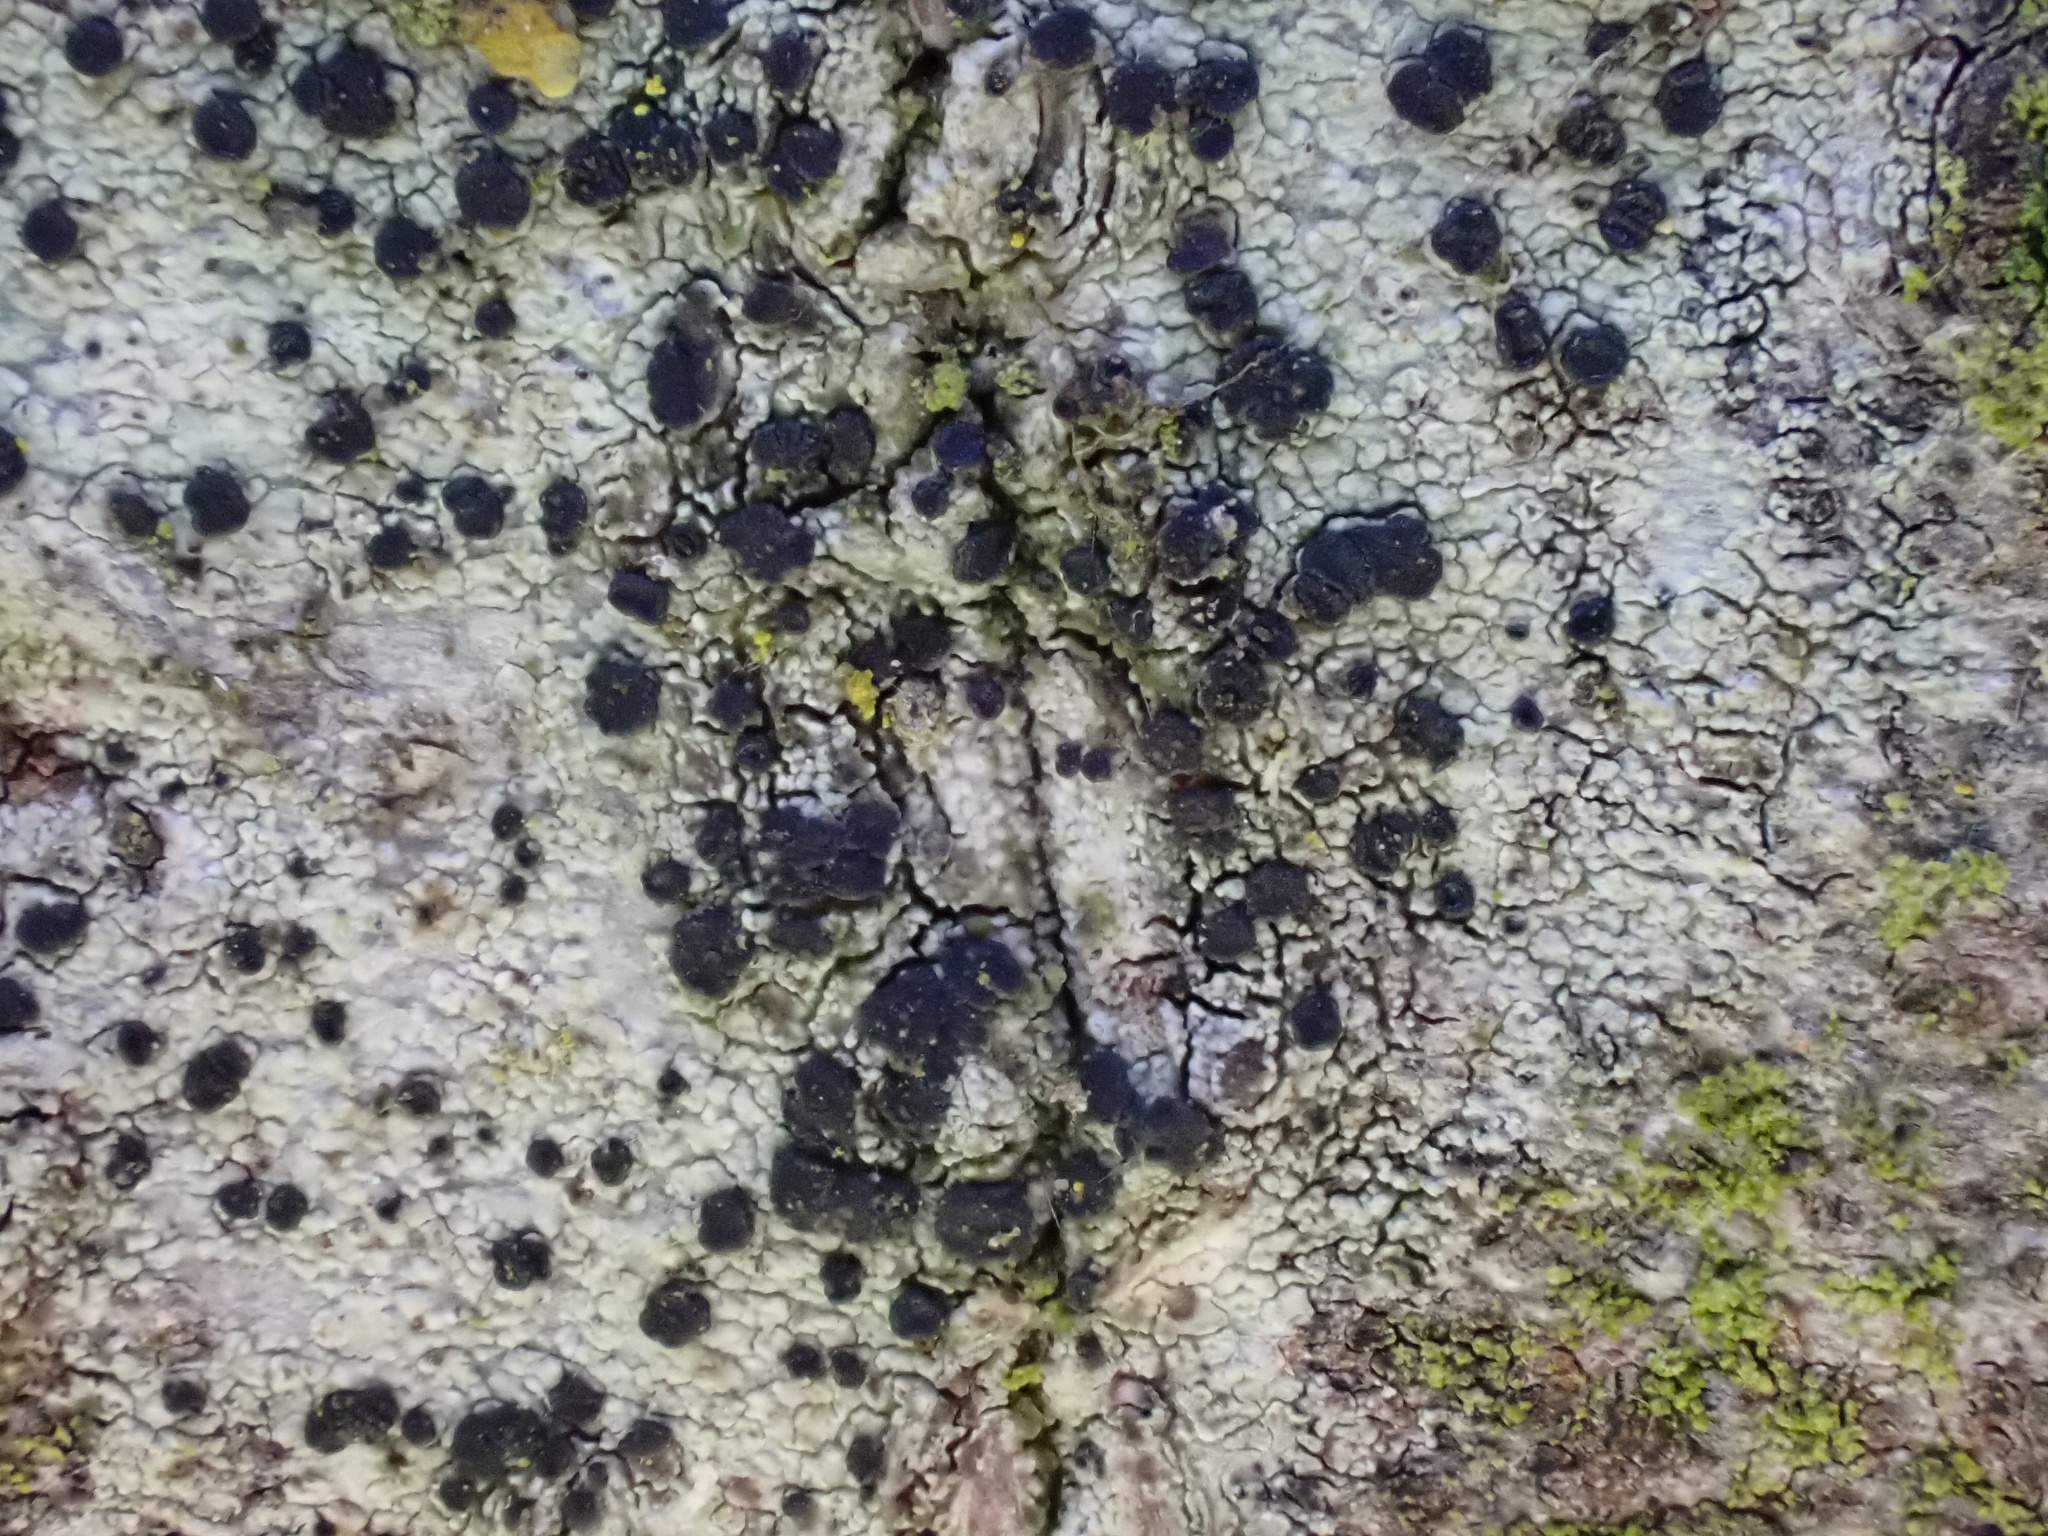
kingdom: Fungi
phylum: Ascomycota
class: Lecanoromycetes
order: Lecanorales
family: Lecanoraceae
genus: Lecidella
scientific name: Lecidella elaeochroma
